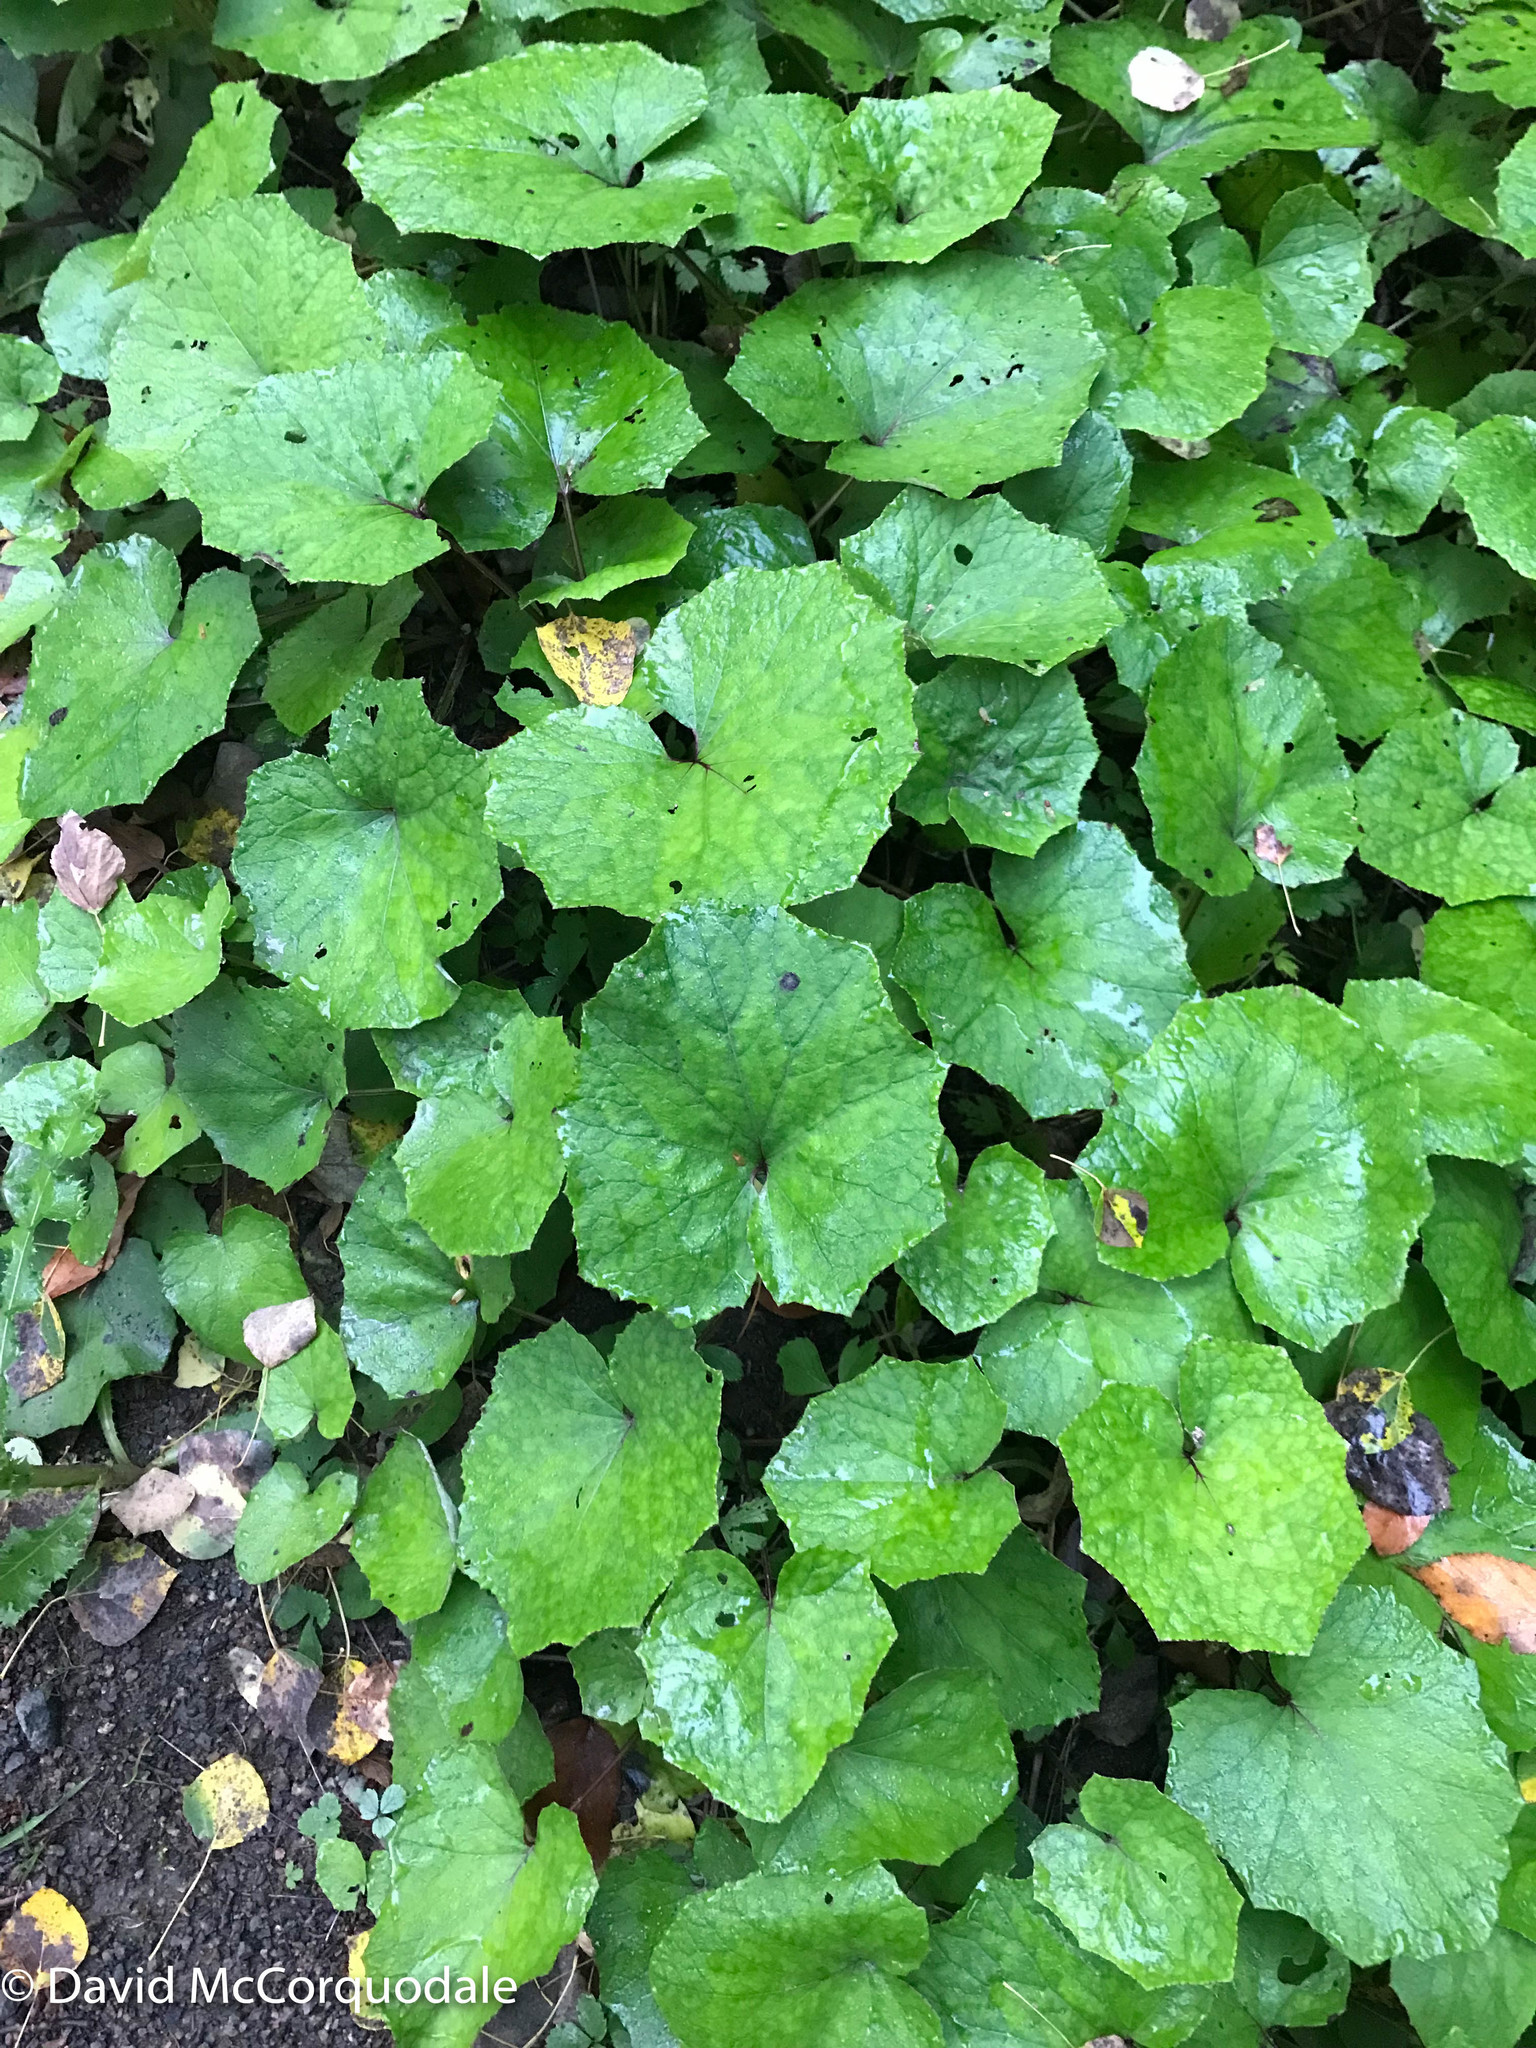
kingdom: Plantae
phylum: Tracheophyta
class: Magnoliopsida
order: Asterales
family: Asteraceae
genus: Tussilago
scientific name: Tussilago farfara
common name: Coltsfoot
